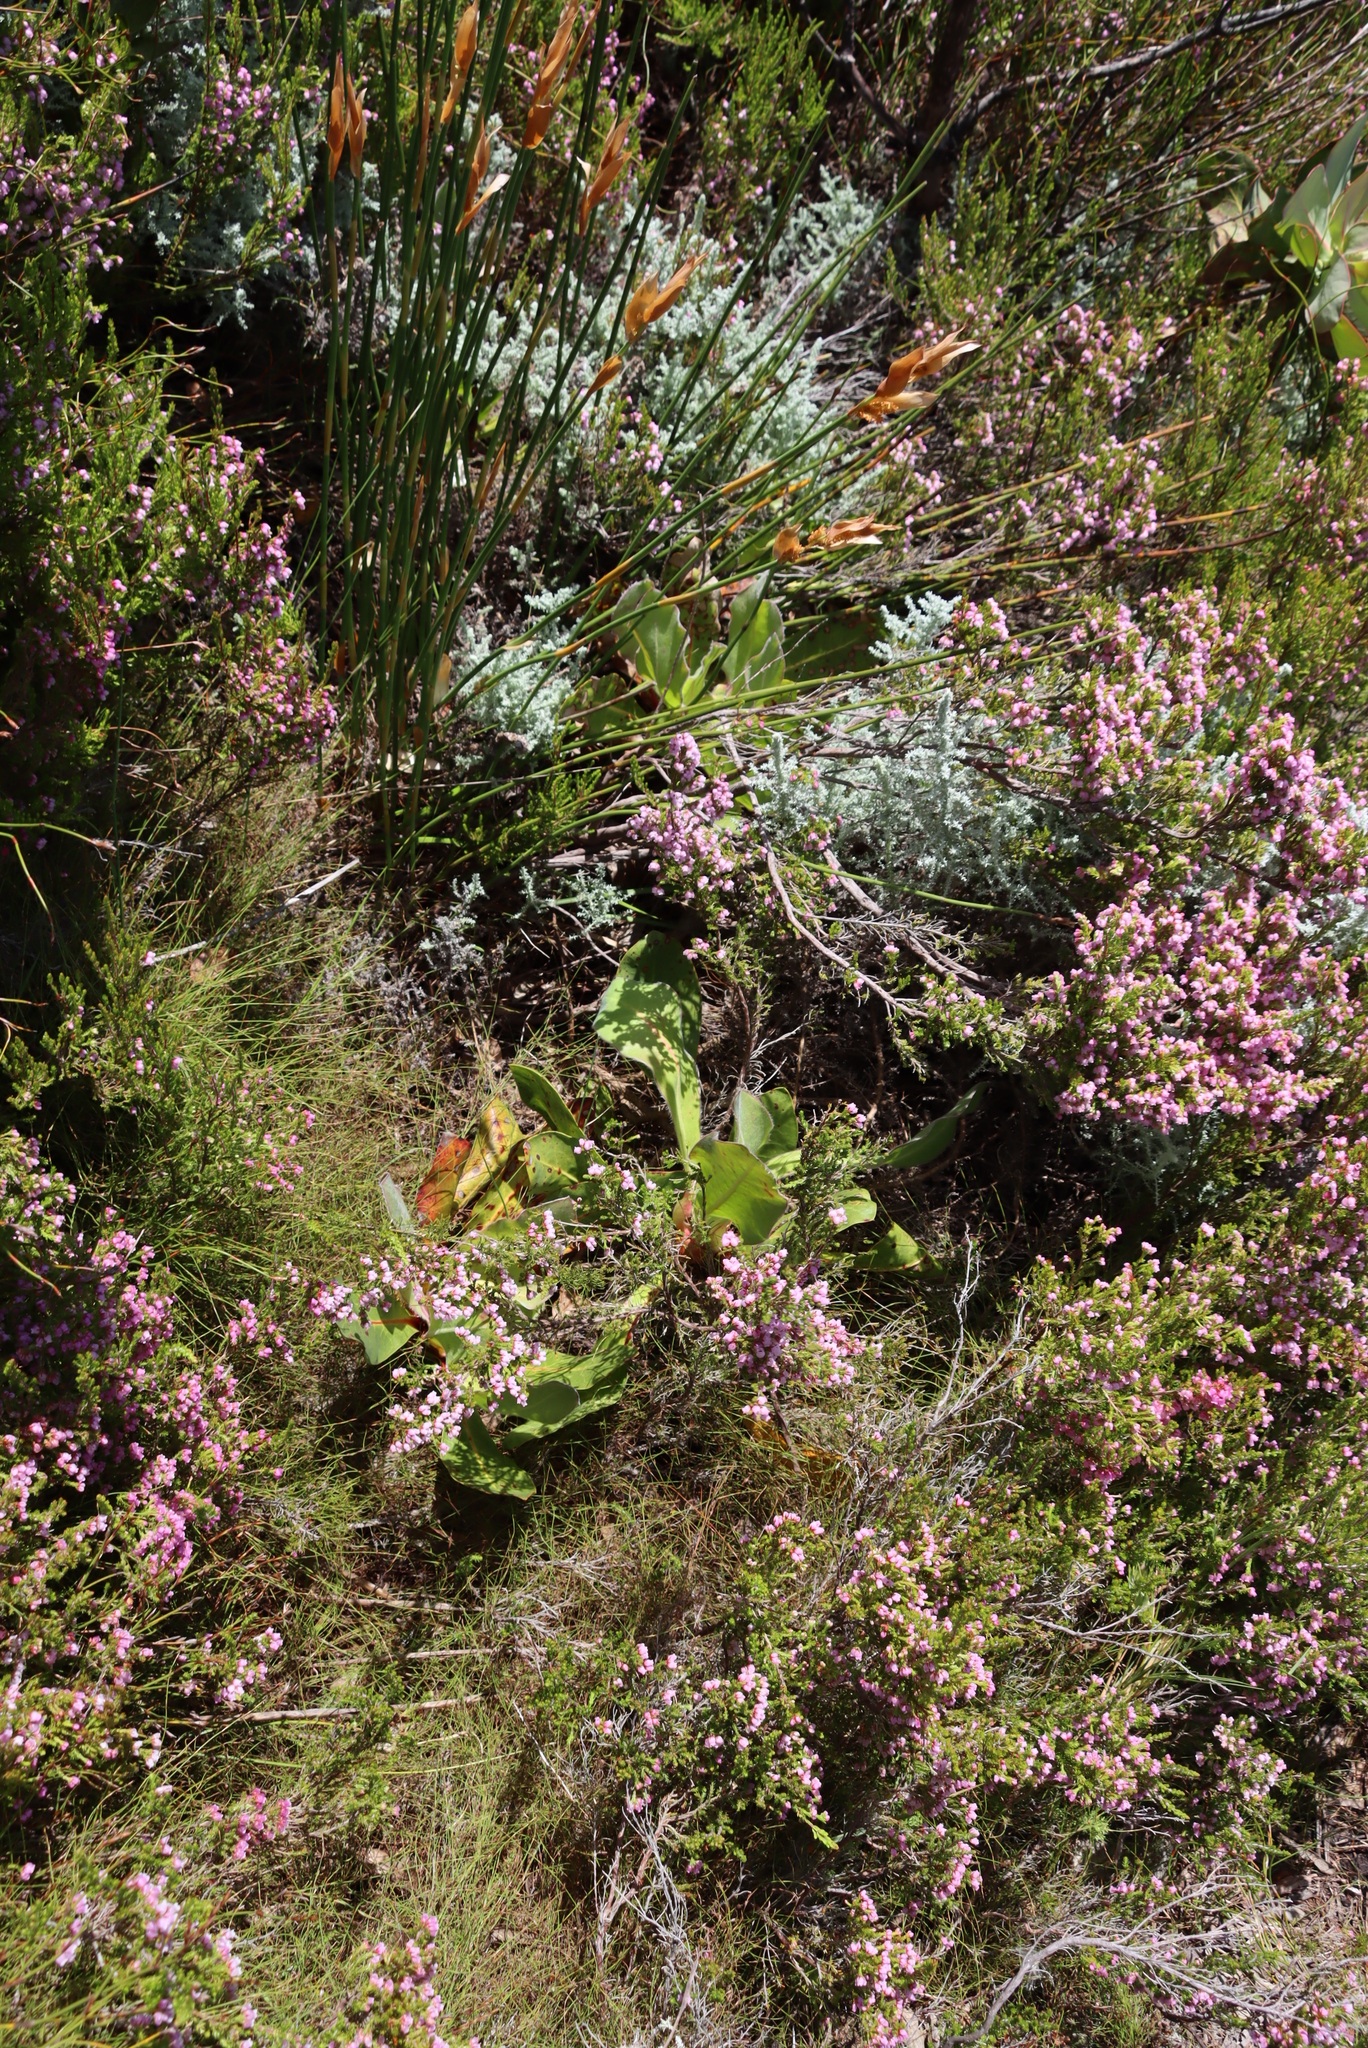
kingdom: Plantae
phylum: Tracheophyta
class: Magnoliopsida
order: Proteales
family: Proteaceae
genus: Protea
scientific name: Protea caespitosa
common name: Bishop sugarbush
